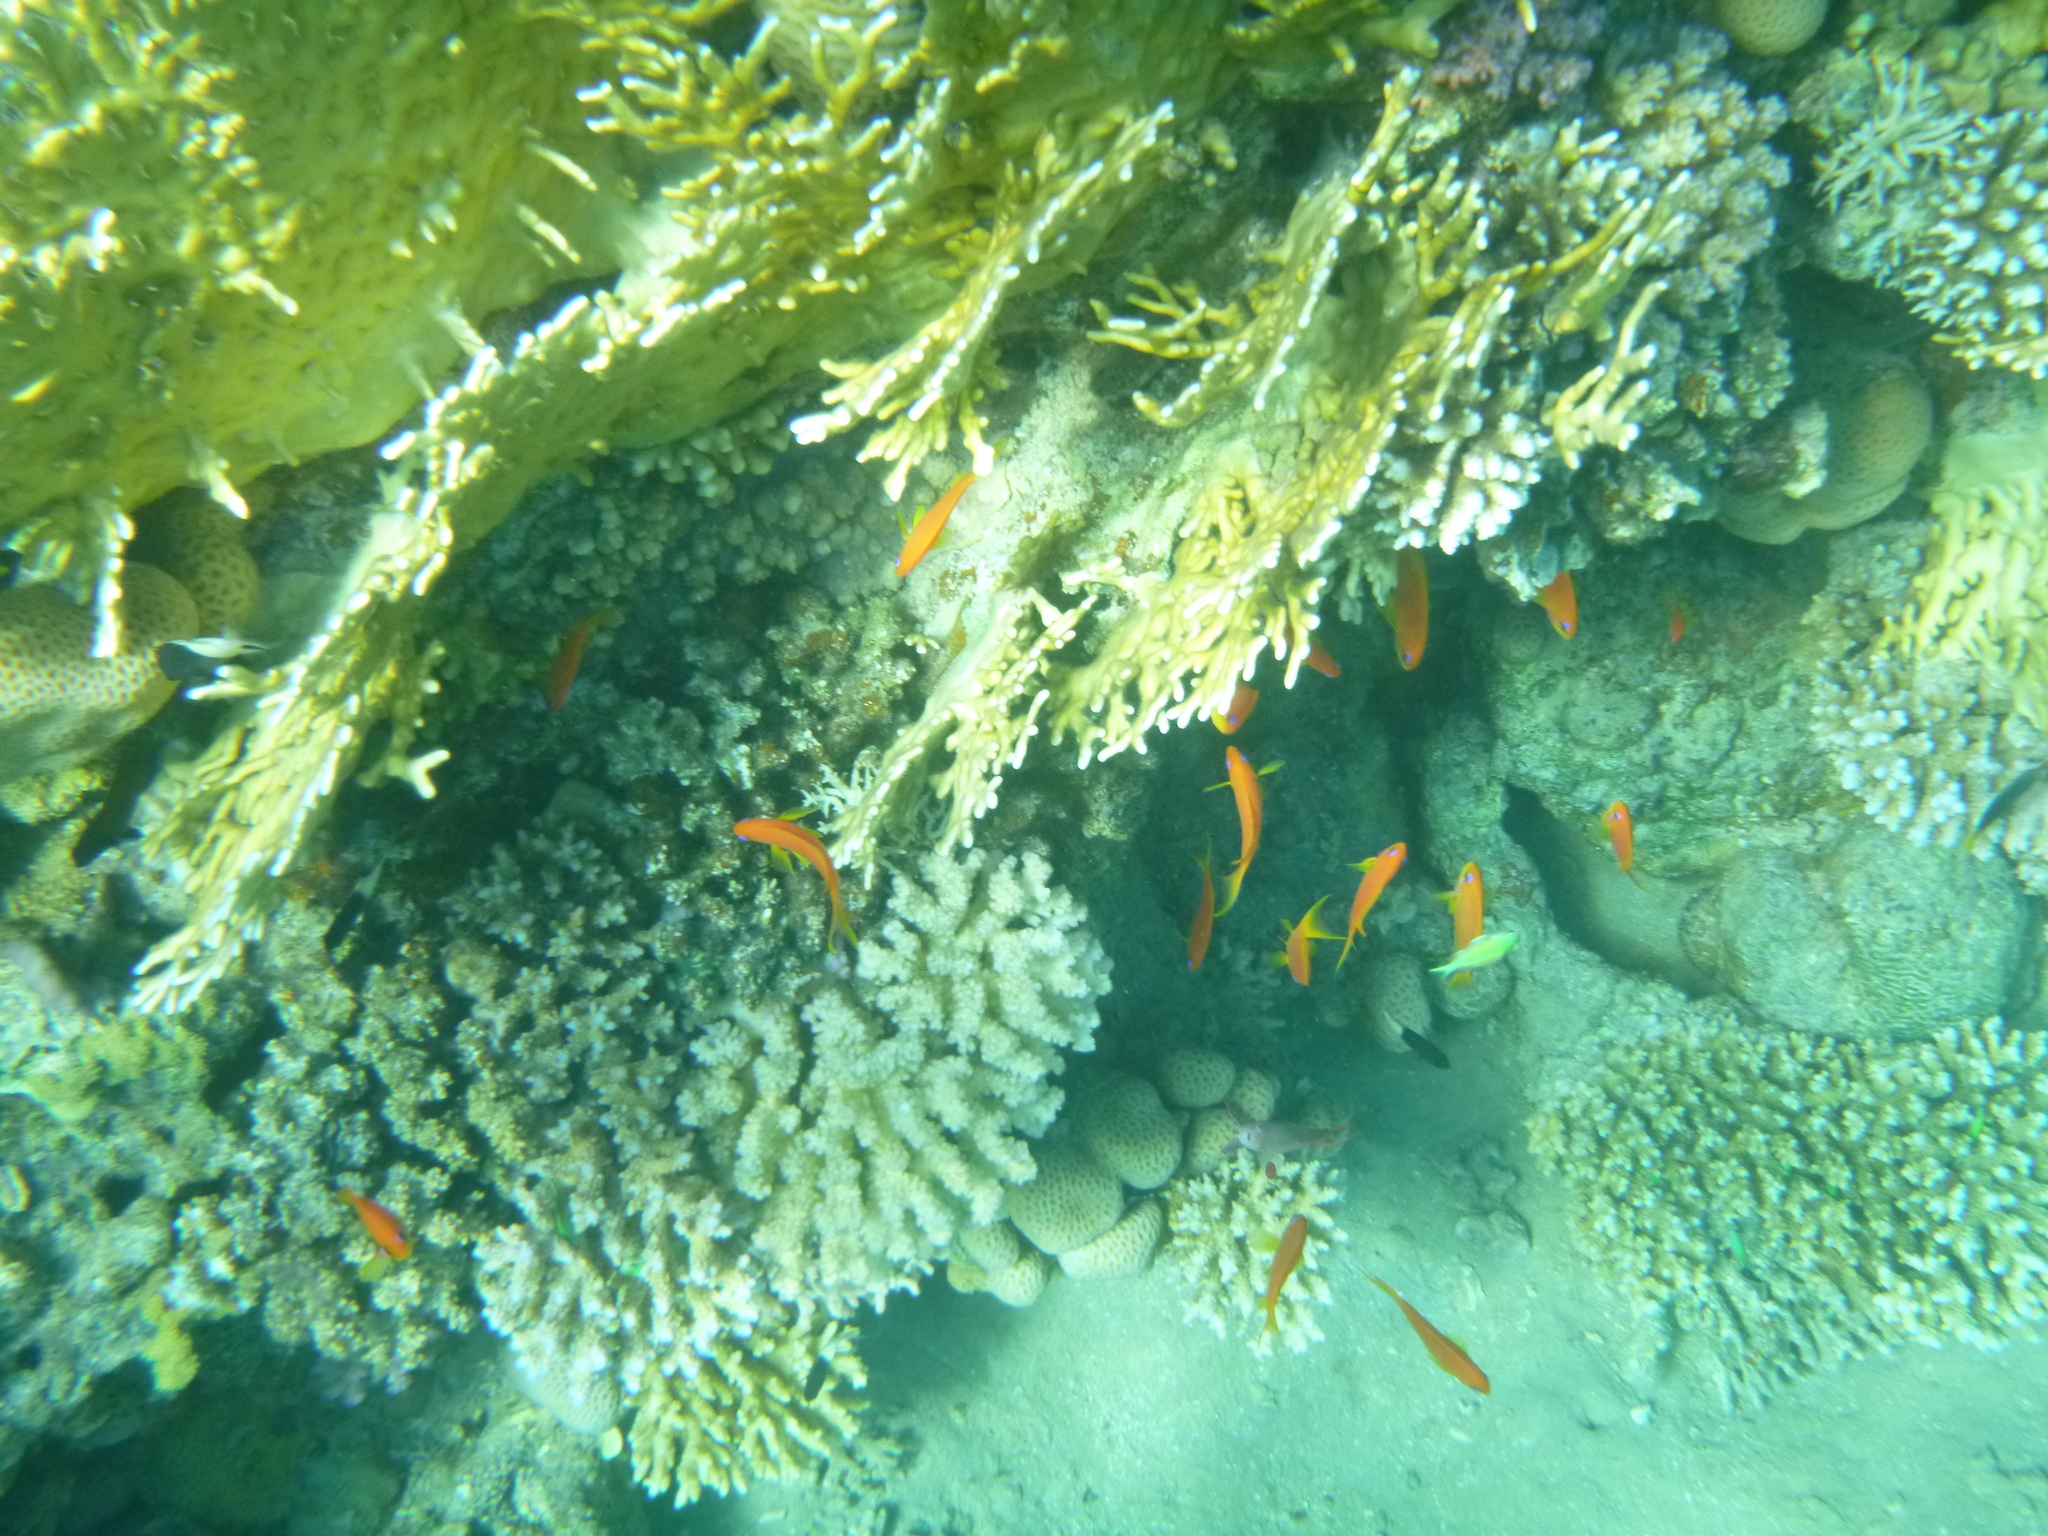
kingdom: Animalia
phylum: Chordata
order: Perciformes
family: Serranidae
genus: Pseudanthias
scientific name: Pseudanthias squamipinnis
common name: Scalefin anthias
